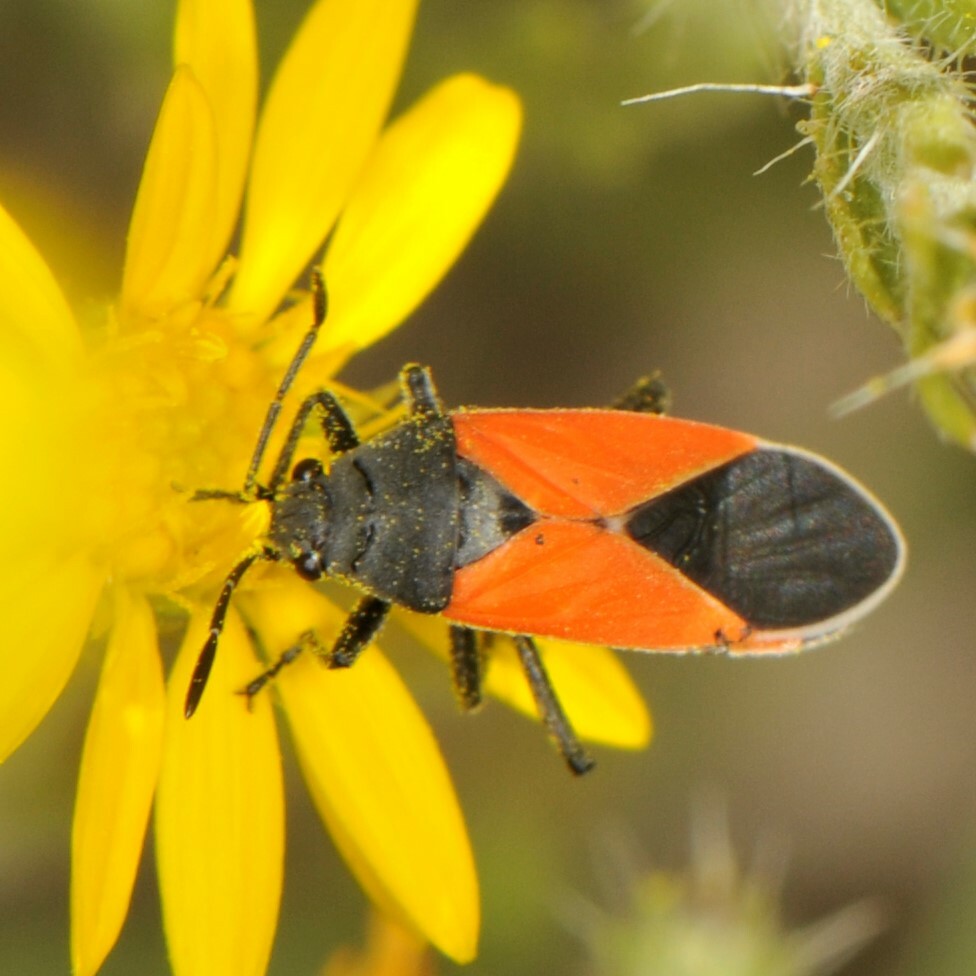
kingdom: Animalia
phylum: Arthropoda
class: Insecta
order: Hemiptera
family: Lygaeidae
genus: Melanopleurus
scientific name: Melanopleurus belfragei
